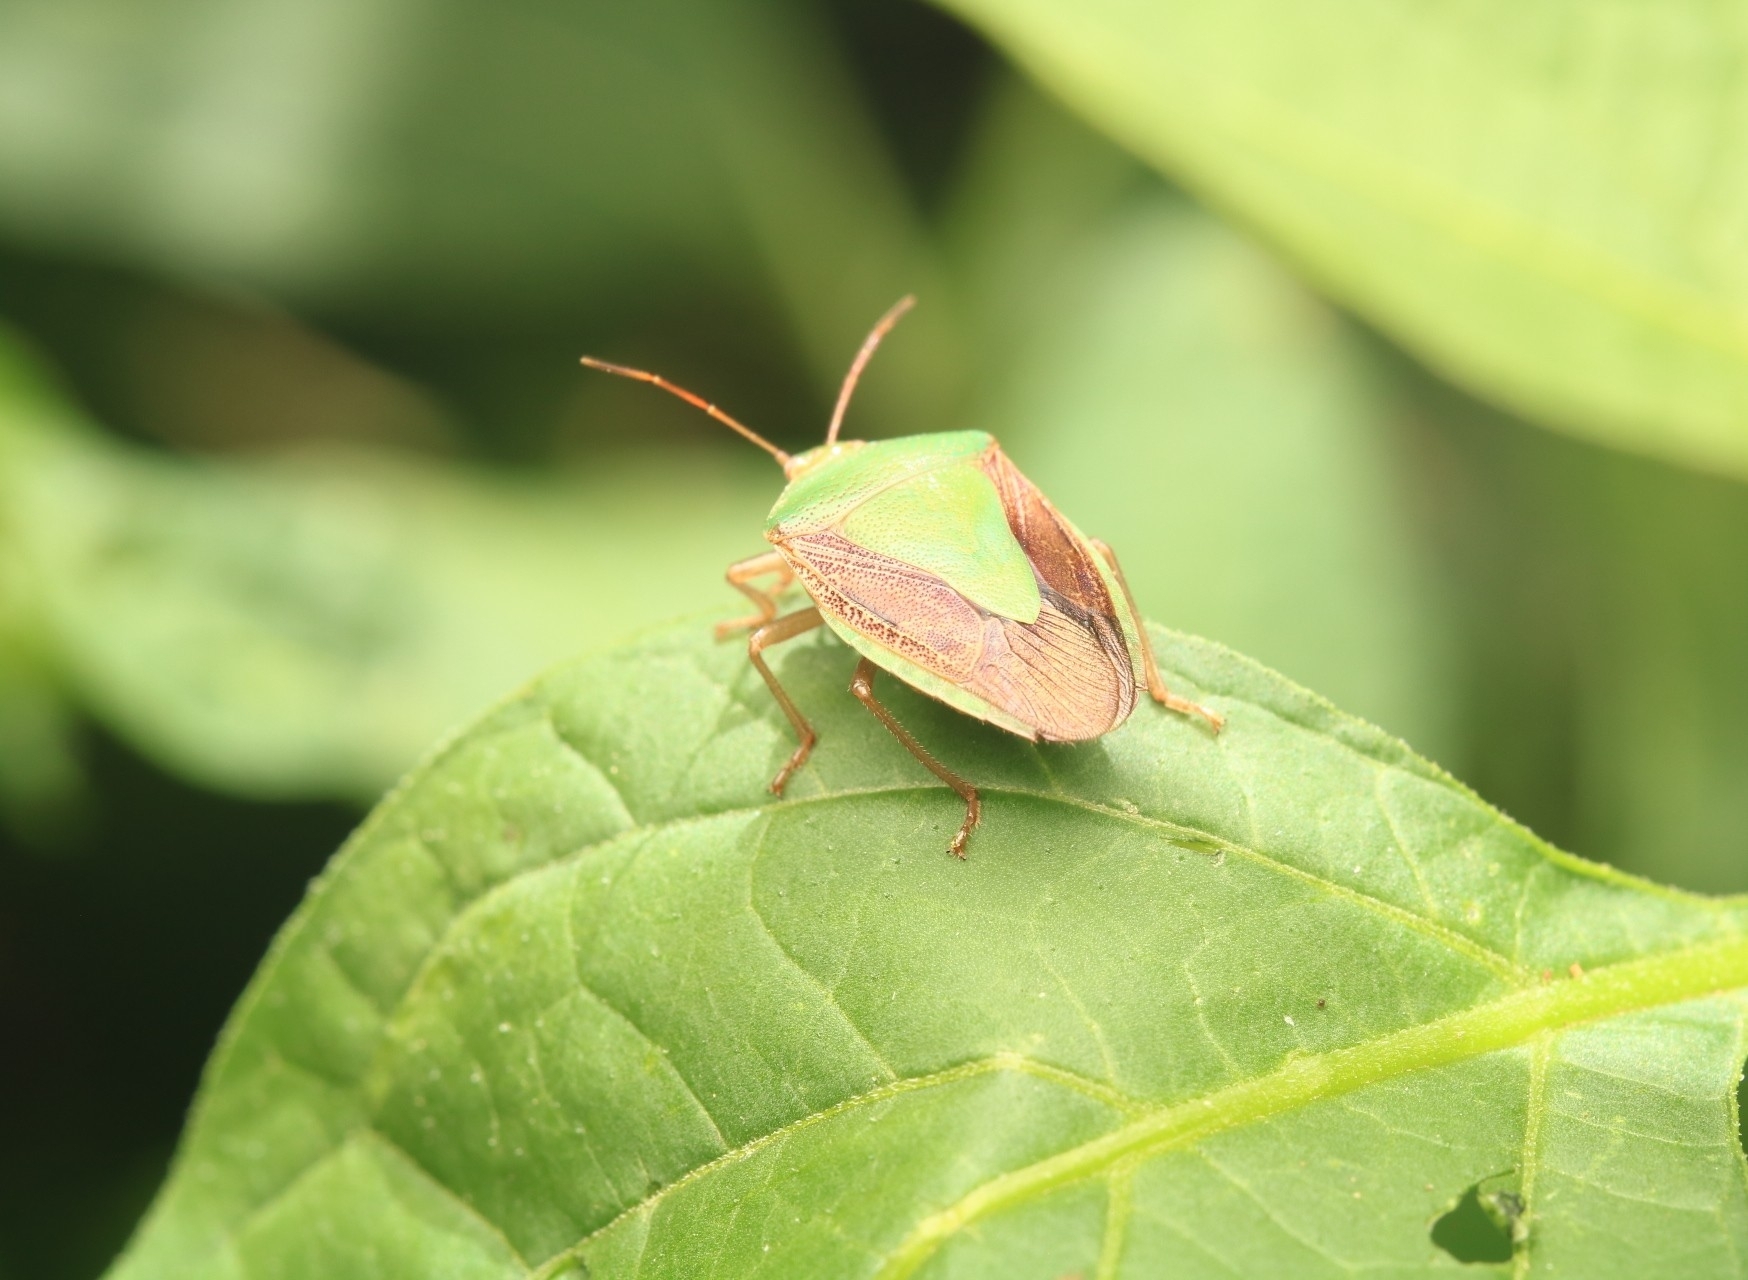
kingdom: Animalia
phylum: Arthropoda
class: Insecta
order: Hemiptera
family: Pentatomidae
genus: Edessa
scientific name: Edessa meditabunda
